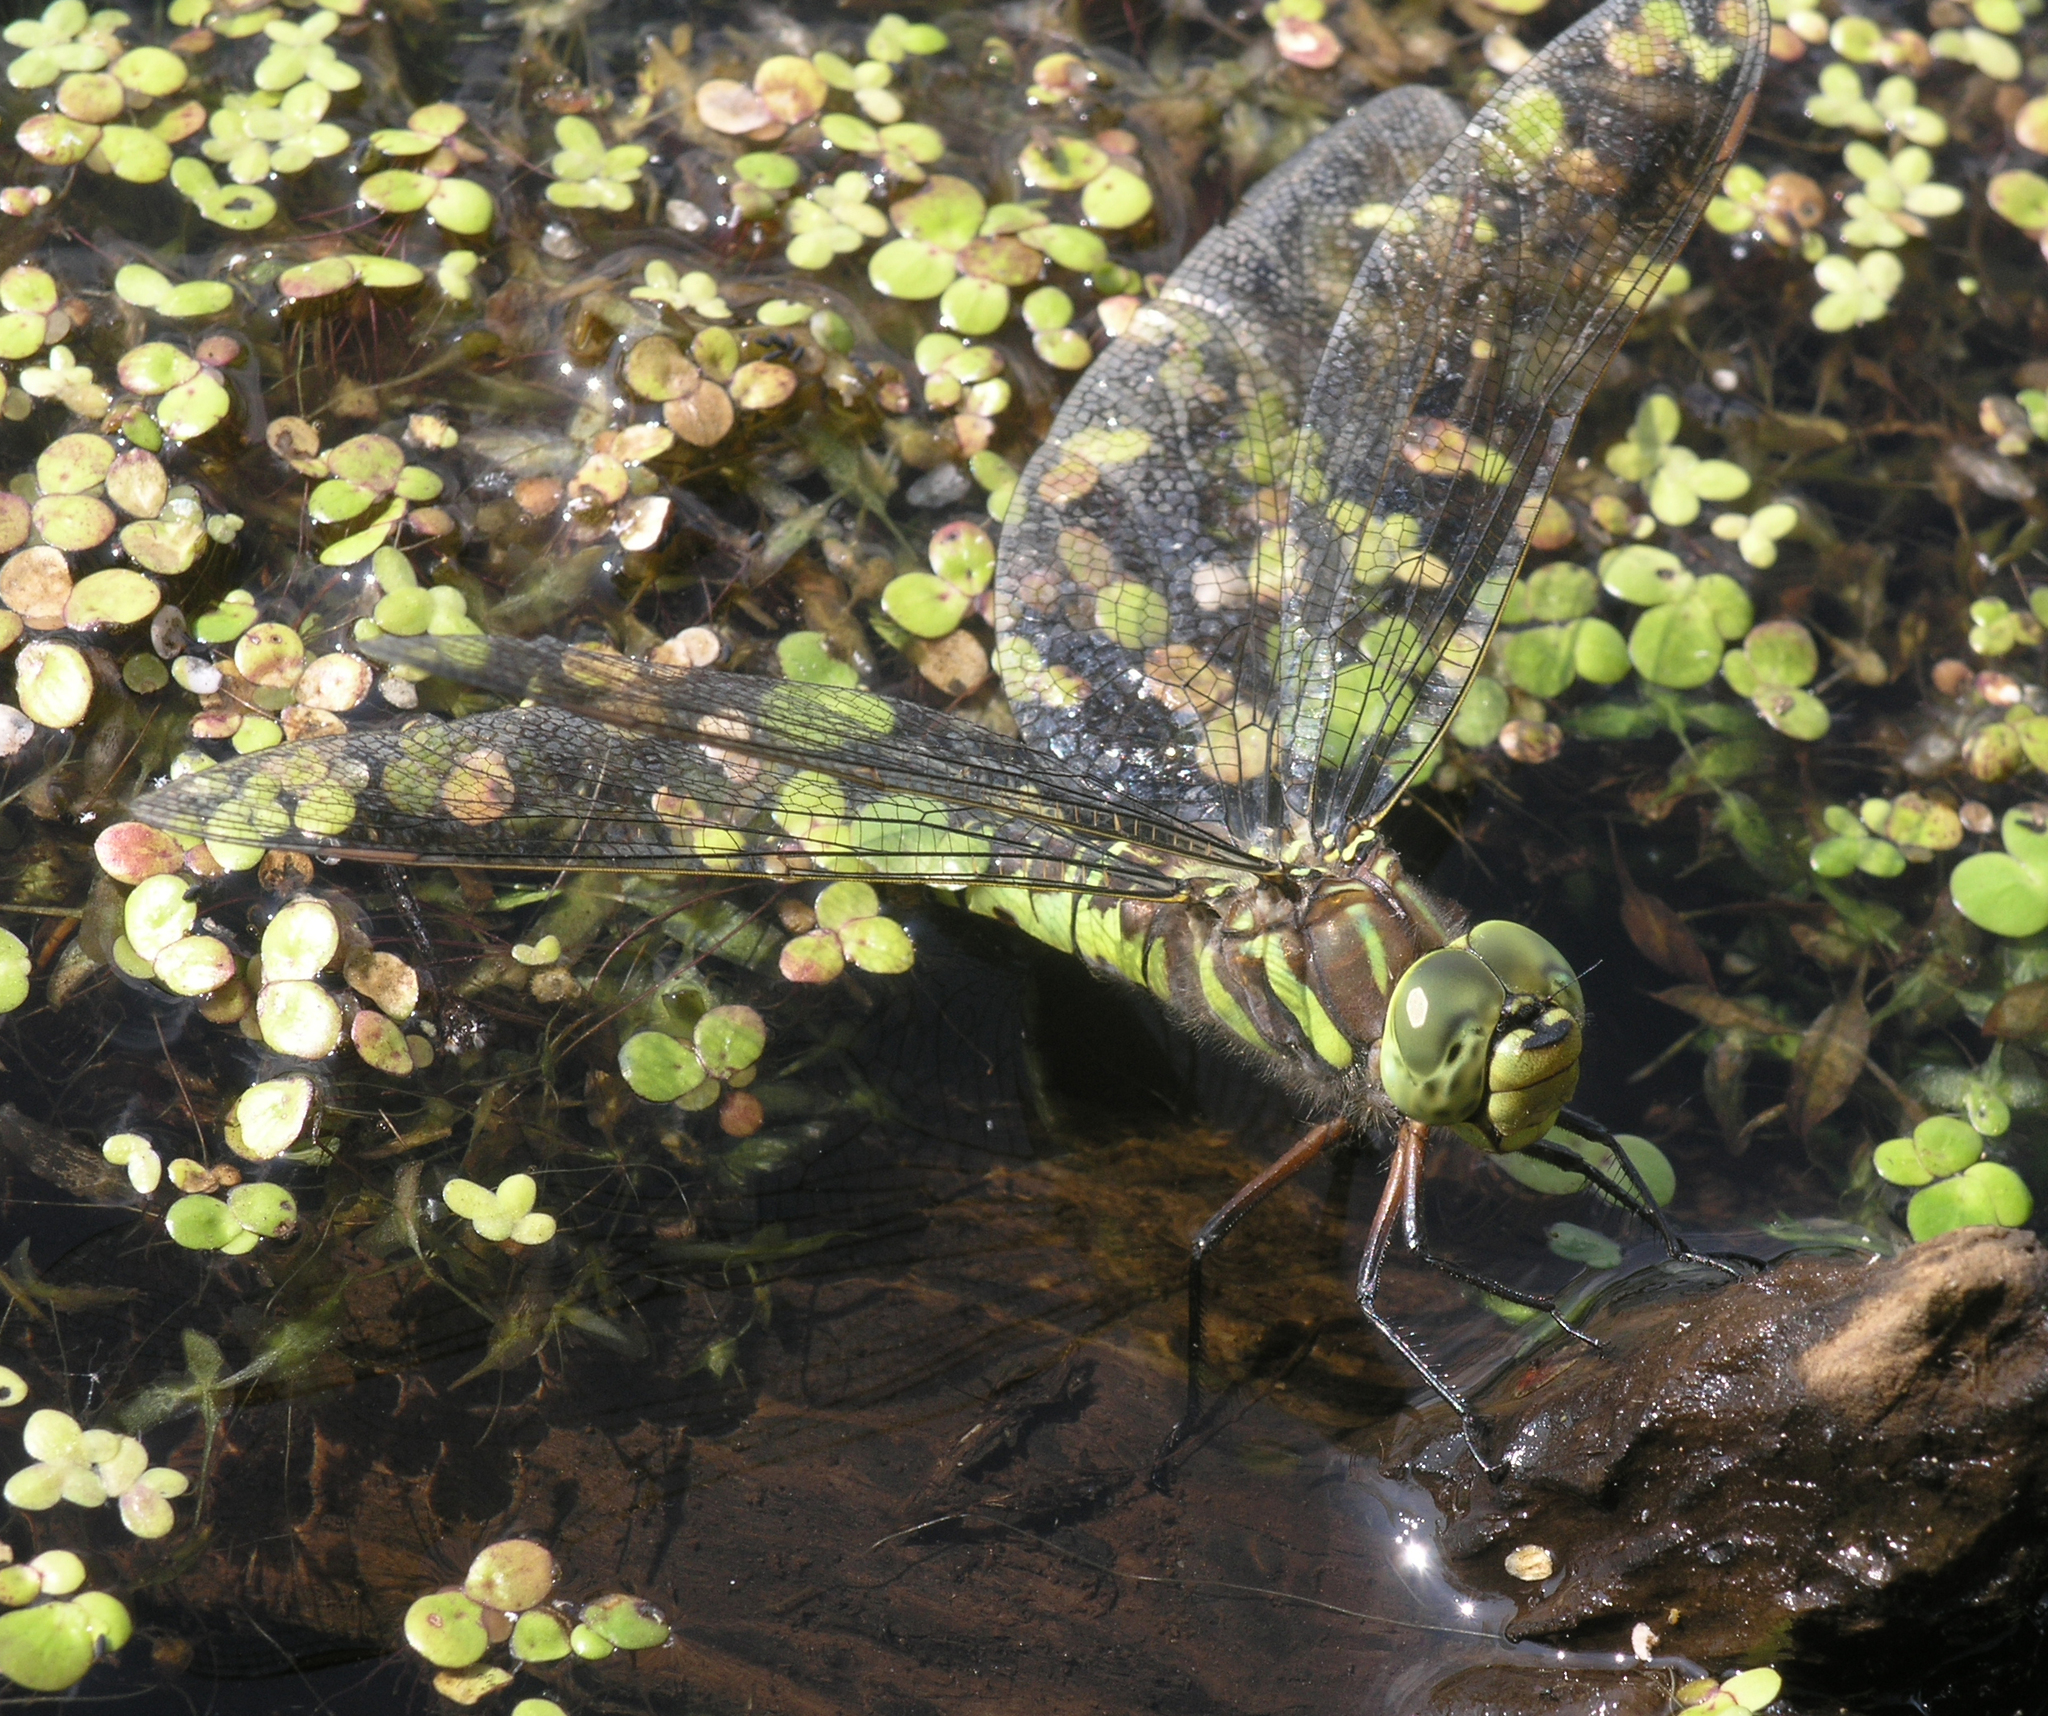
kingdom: Animalia
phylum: Arthropoda
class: Insecta
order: Odonata
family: Aeshnidae
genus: Aeshna
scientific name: Aeshna crenata
